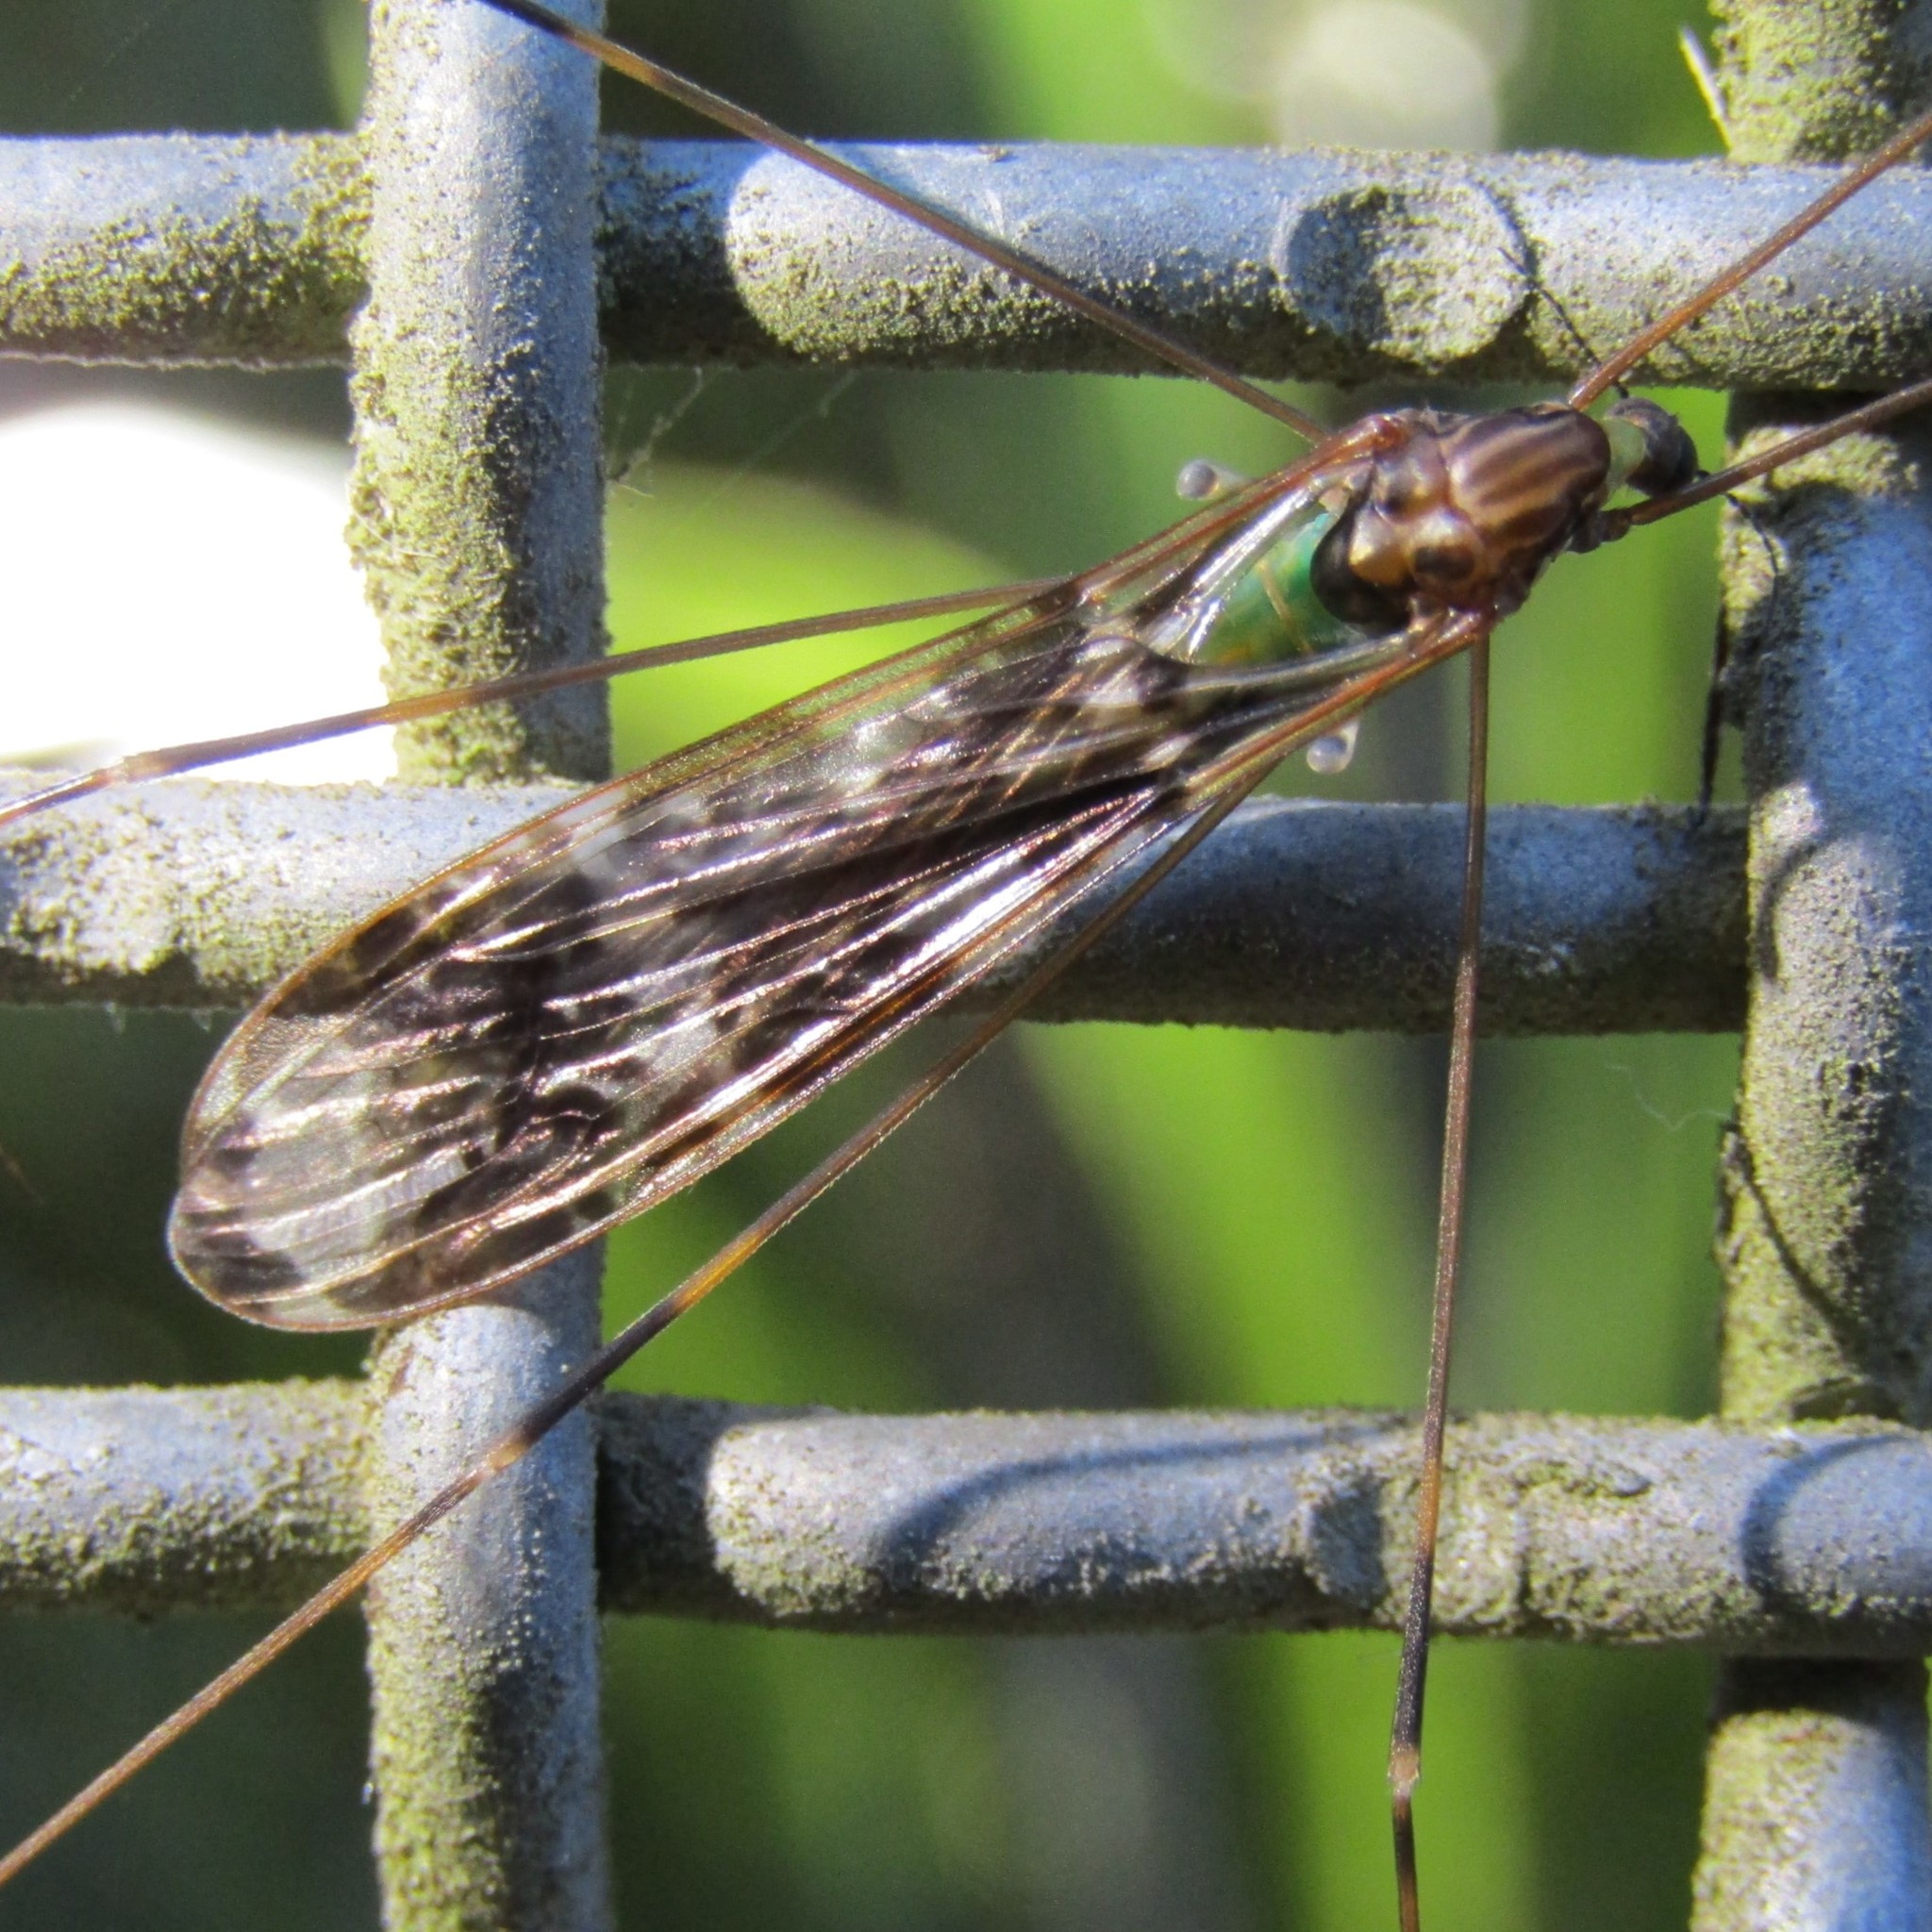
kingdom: Animalia
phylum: Arthropoda
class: Insecta
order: Diptera
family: Limoniidae
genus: Discobola
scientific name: Discobola dohrni
